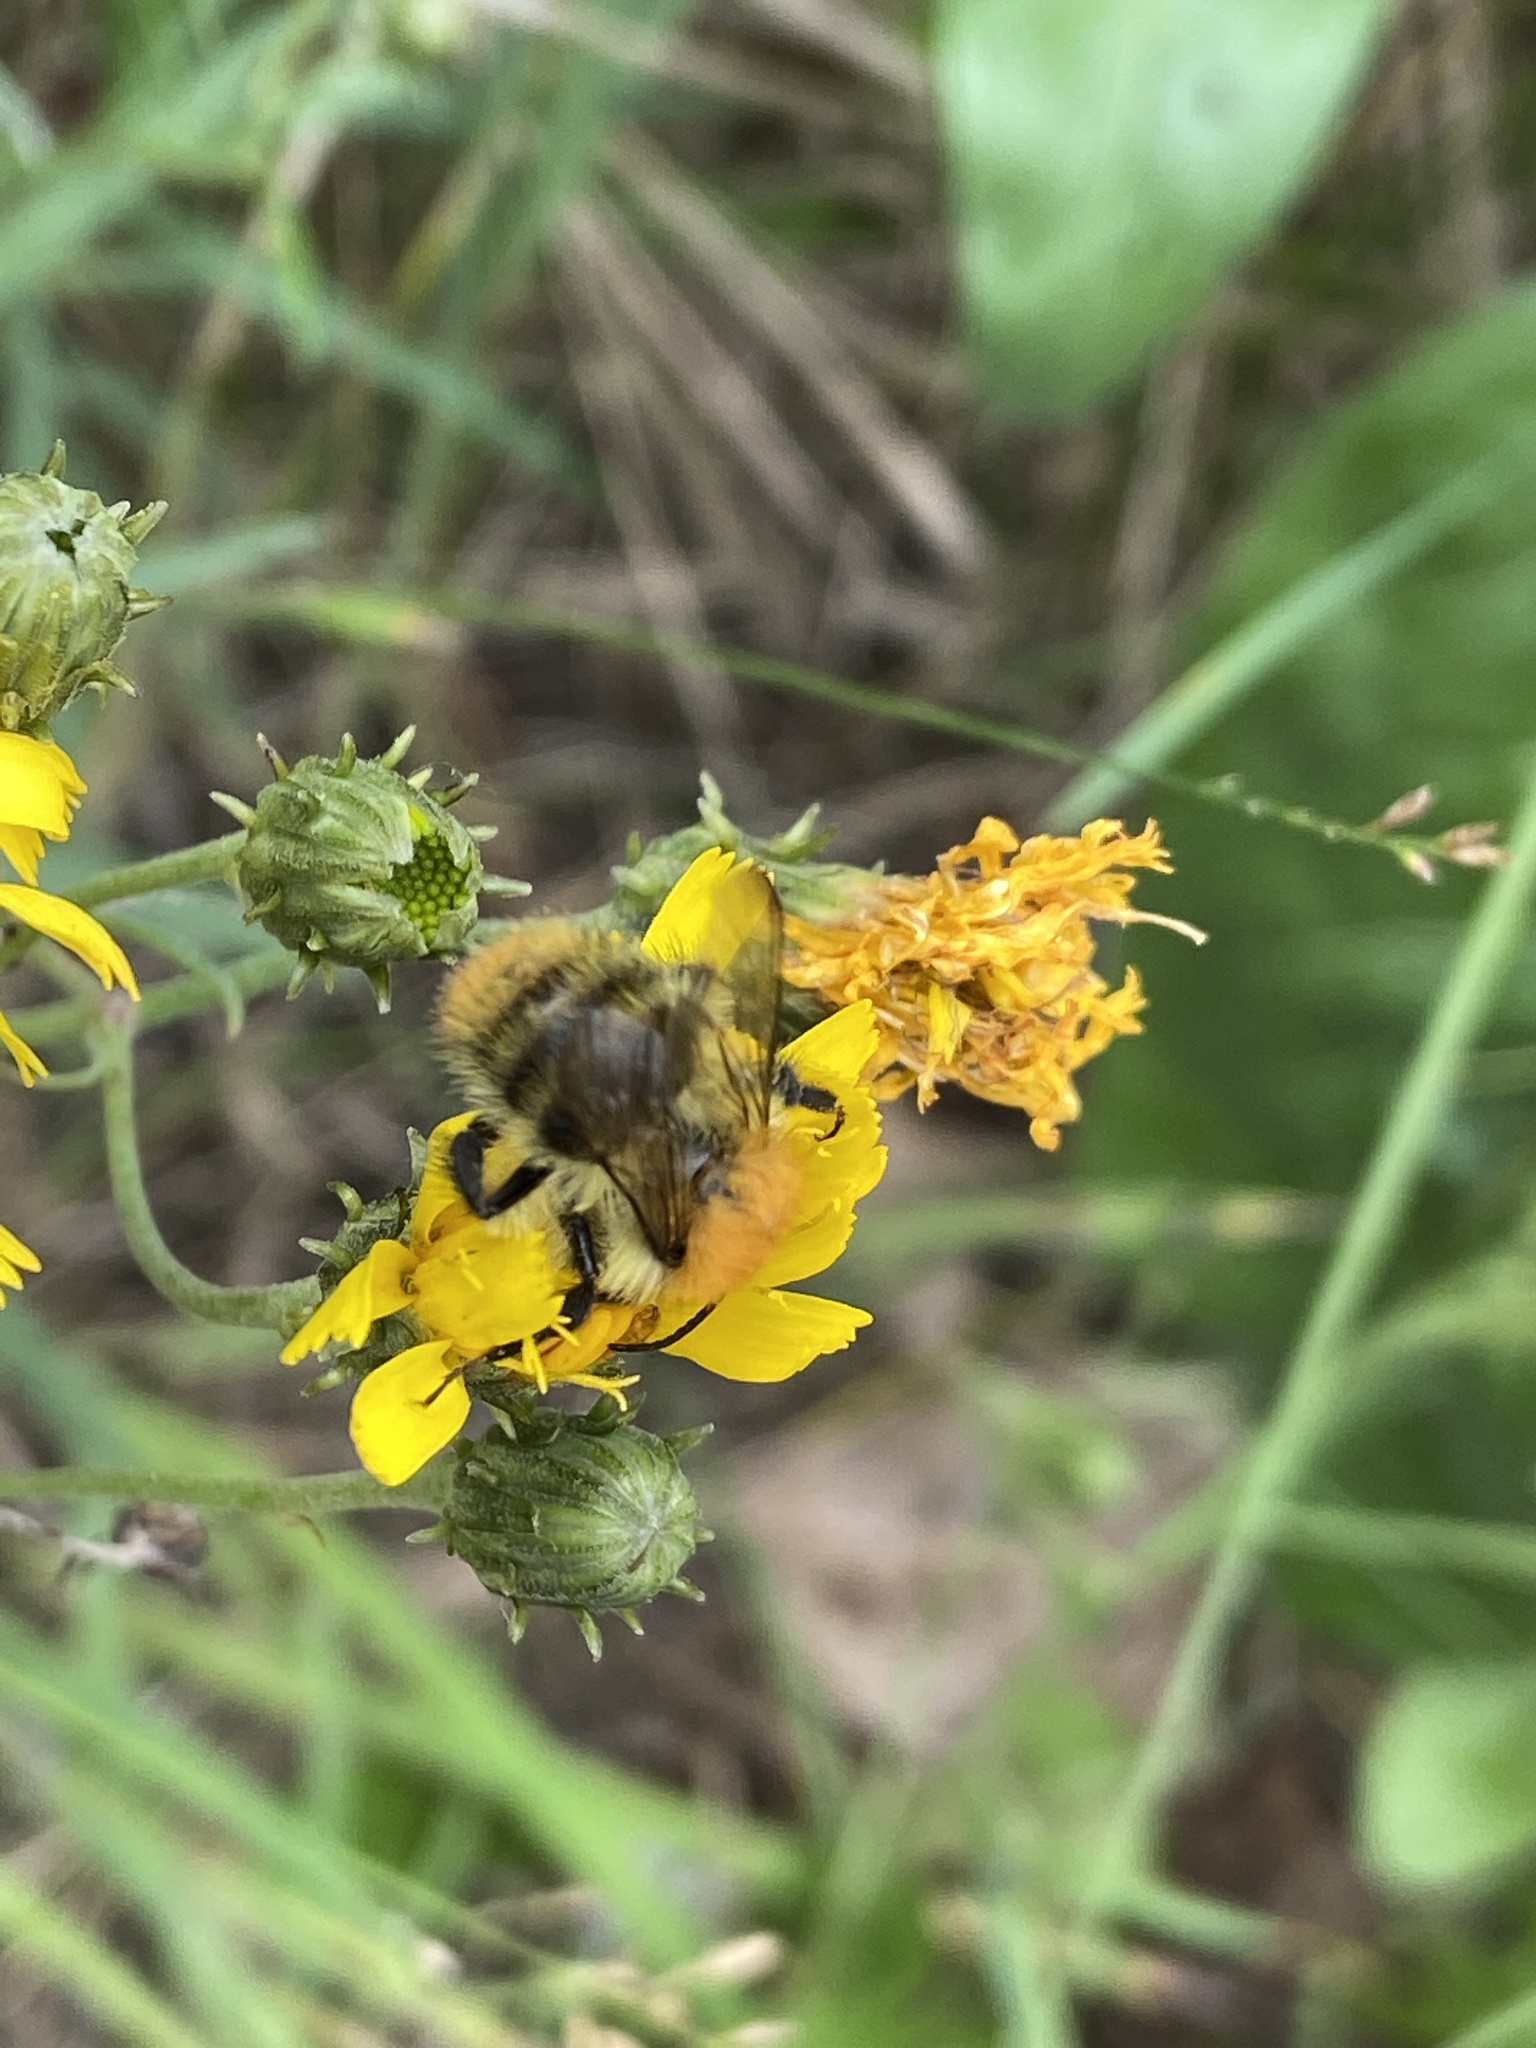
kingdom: Animalia
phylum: Arthropoda
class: Insecta
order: Hymenoptera
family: Apidae
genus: Bombus
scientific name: Bombus pascuorum
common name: Common carder bee
